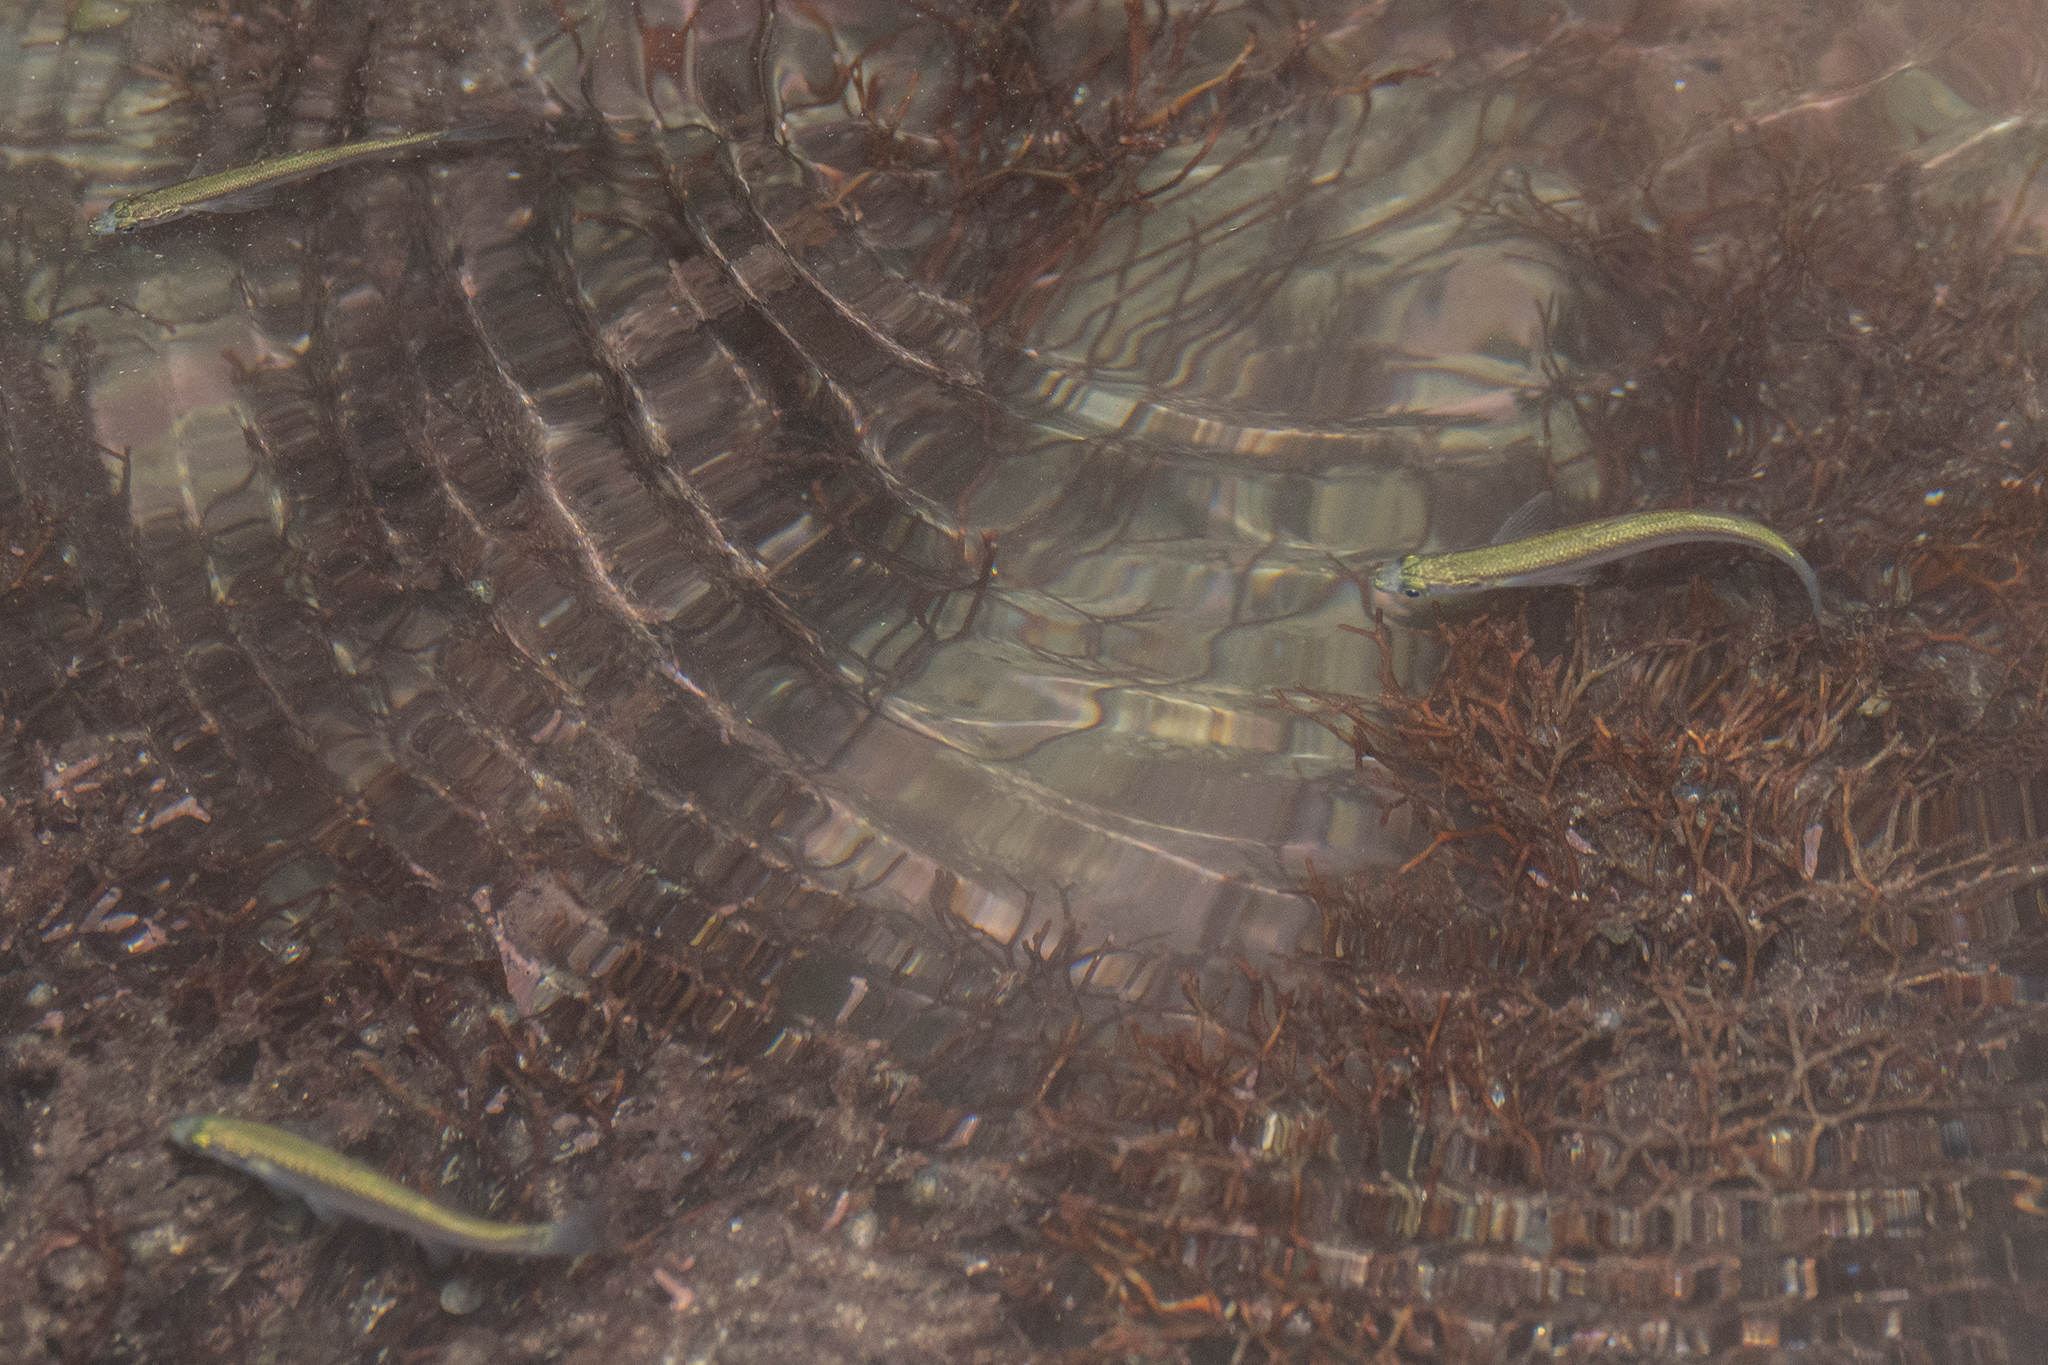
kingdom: Animalia
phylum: Chordata
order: Mugiliformes
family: Mugilidae
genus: Aldrichetta
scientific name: Aldrichetta forsteri
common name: Yellow-eye mullet
